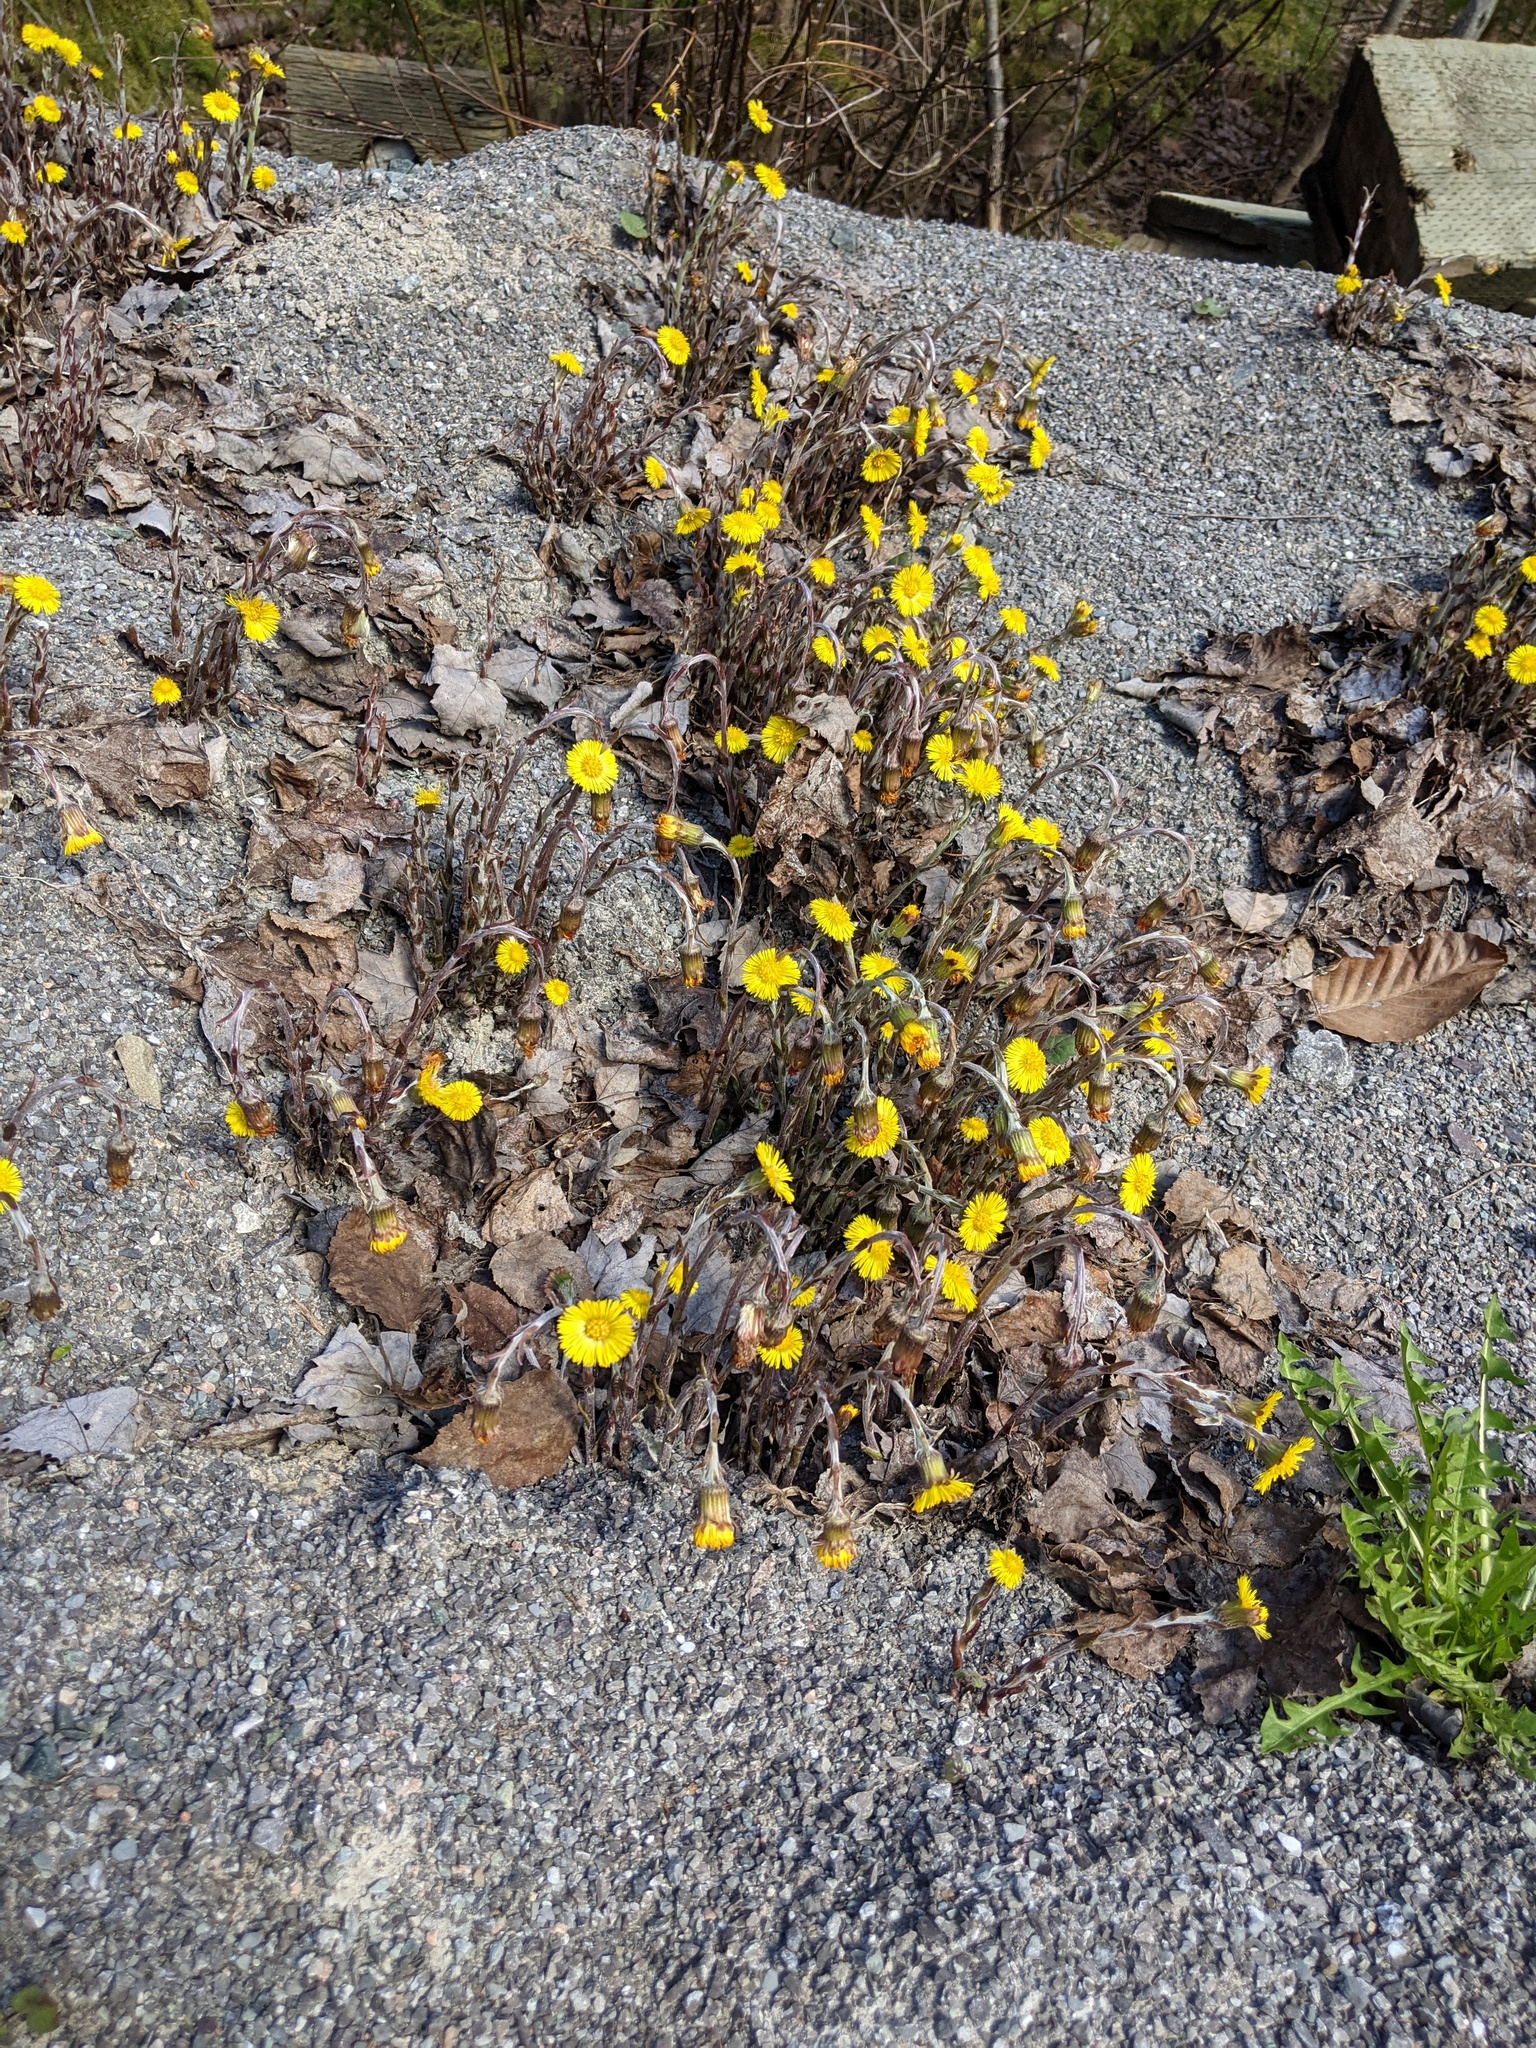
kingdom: Plantae
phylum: Tracheophyta
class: Magnoliopsida
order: Asterales
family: Asteraceae
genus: Tussilago
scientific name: Tussilago farfara
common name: Coltsfoot
